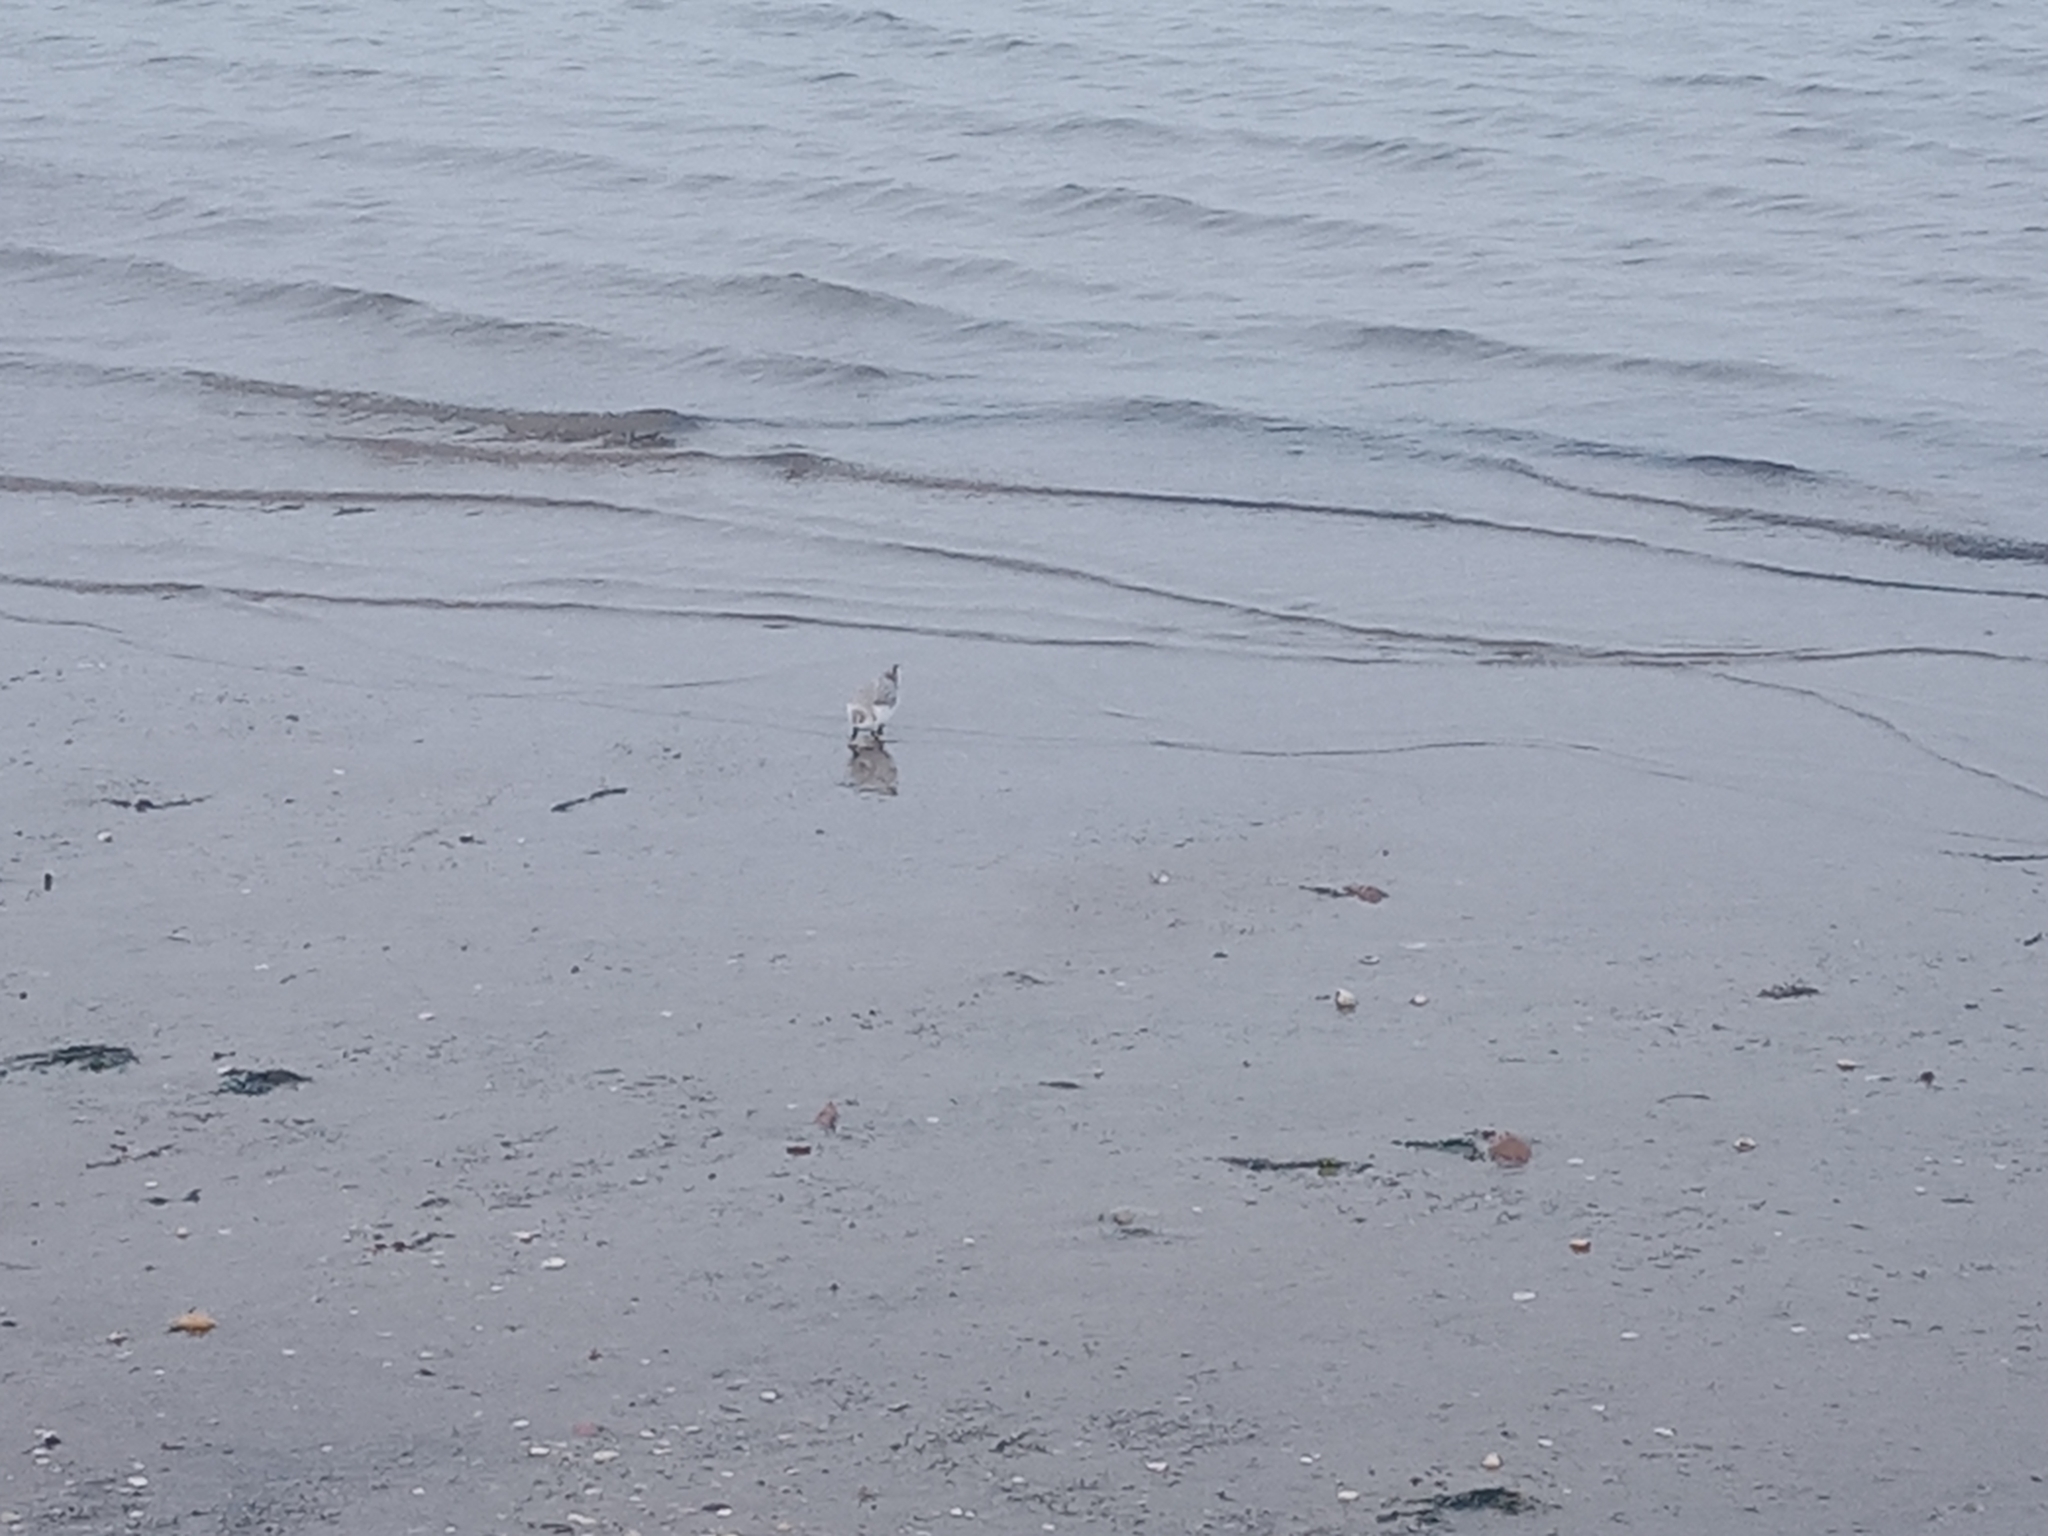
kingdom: Animalia
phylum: Chordata
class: Aves
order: Charadriiformes
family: Scolopacidae
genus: Calidris
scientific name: Calidris alba
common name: Sanderling
